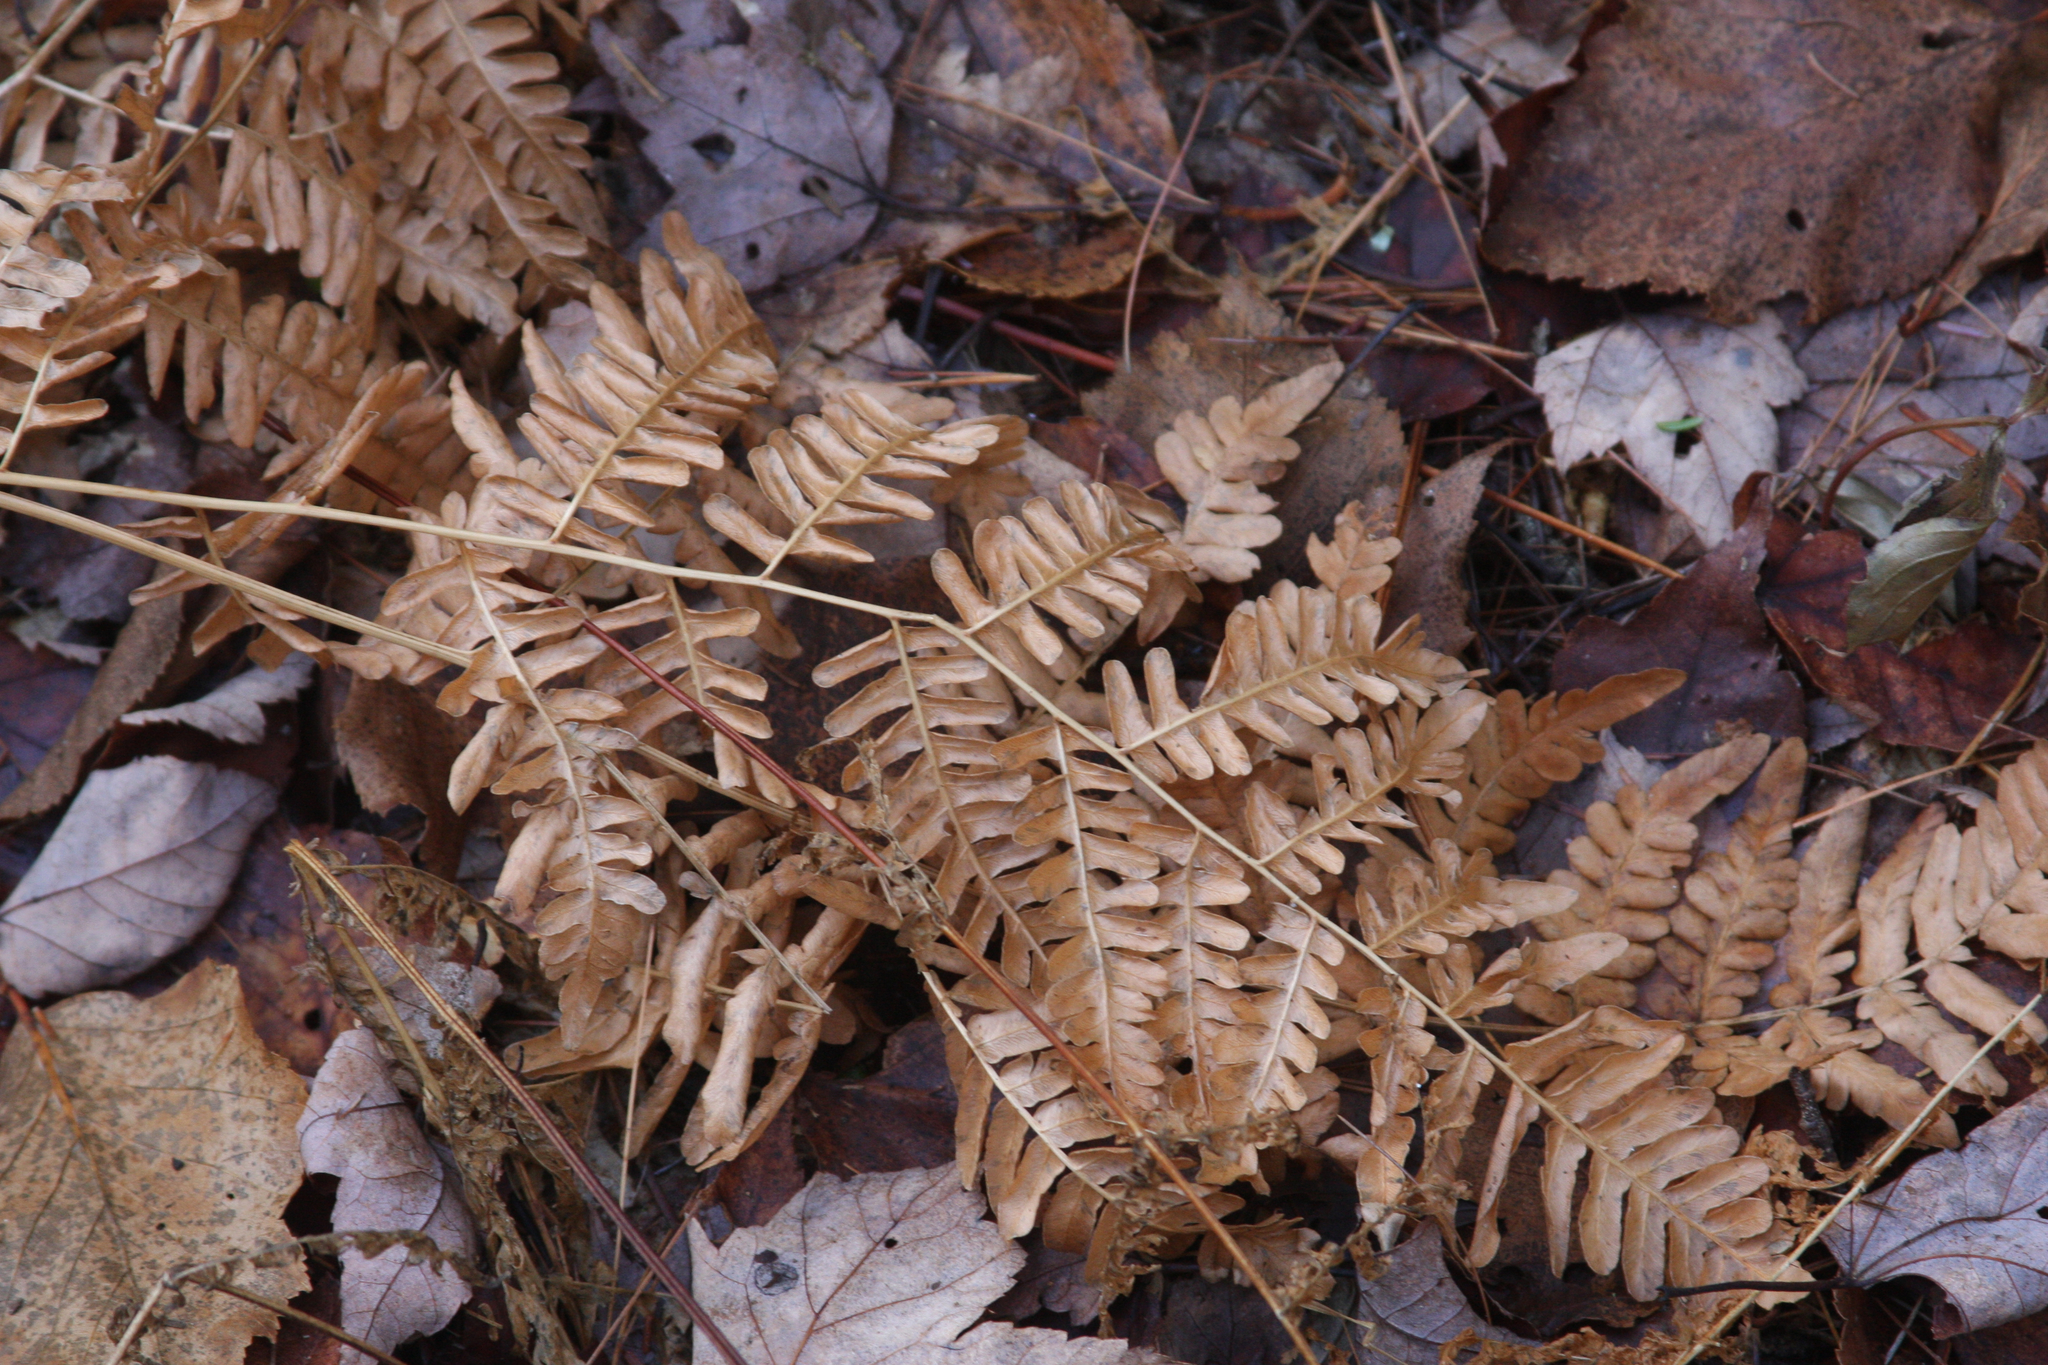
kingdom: Plantae
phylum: Tracheophyta
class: Polypodiopsida
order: Polypodiales
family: Dennstaedtiaceae
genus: Pteridium
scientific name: Pteridium aquilinum
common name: Bracken
